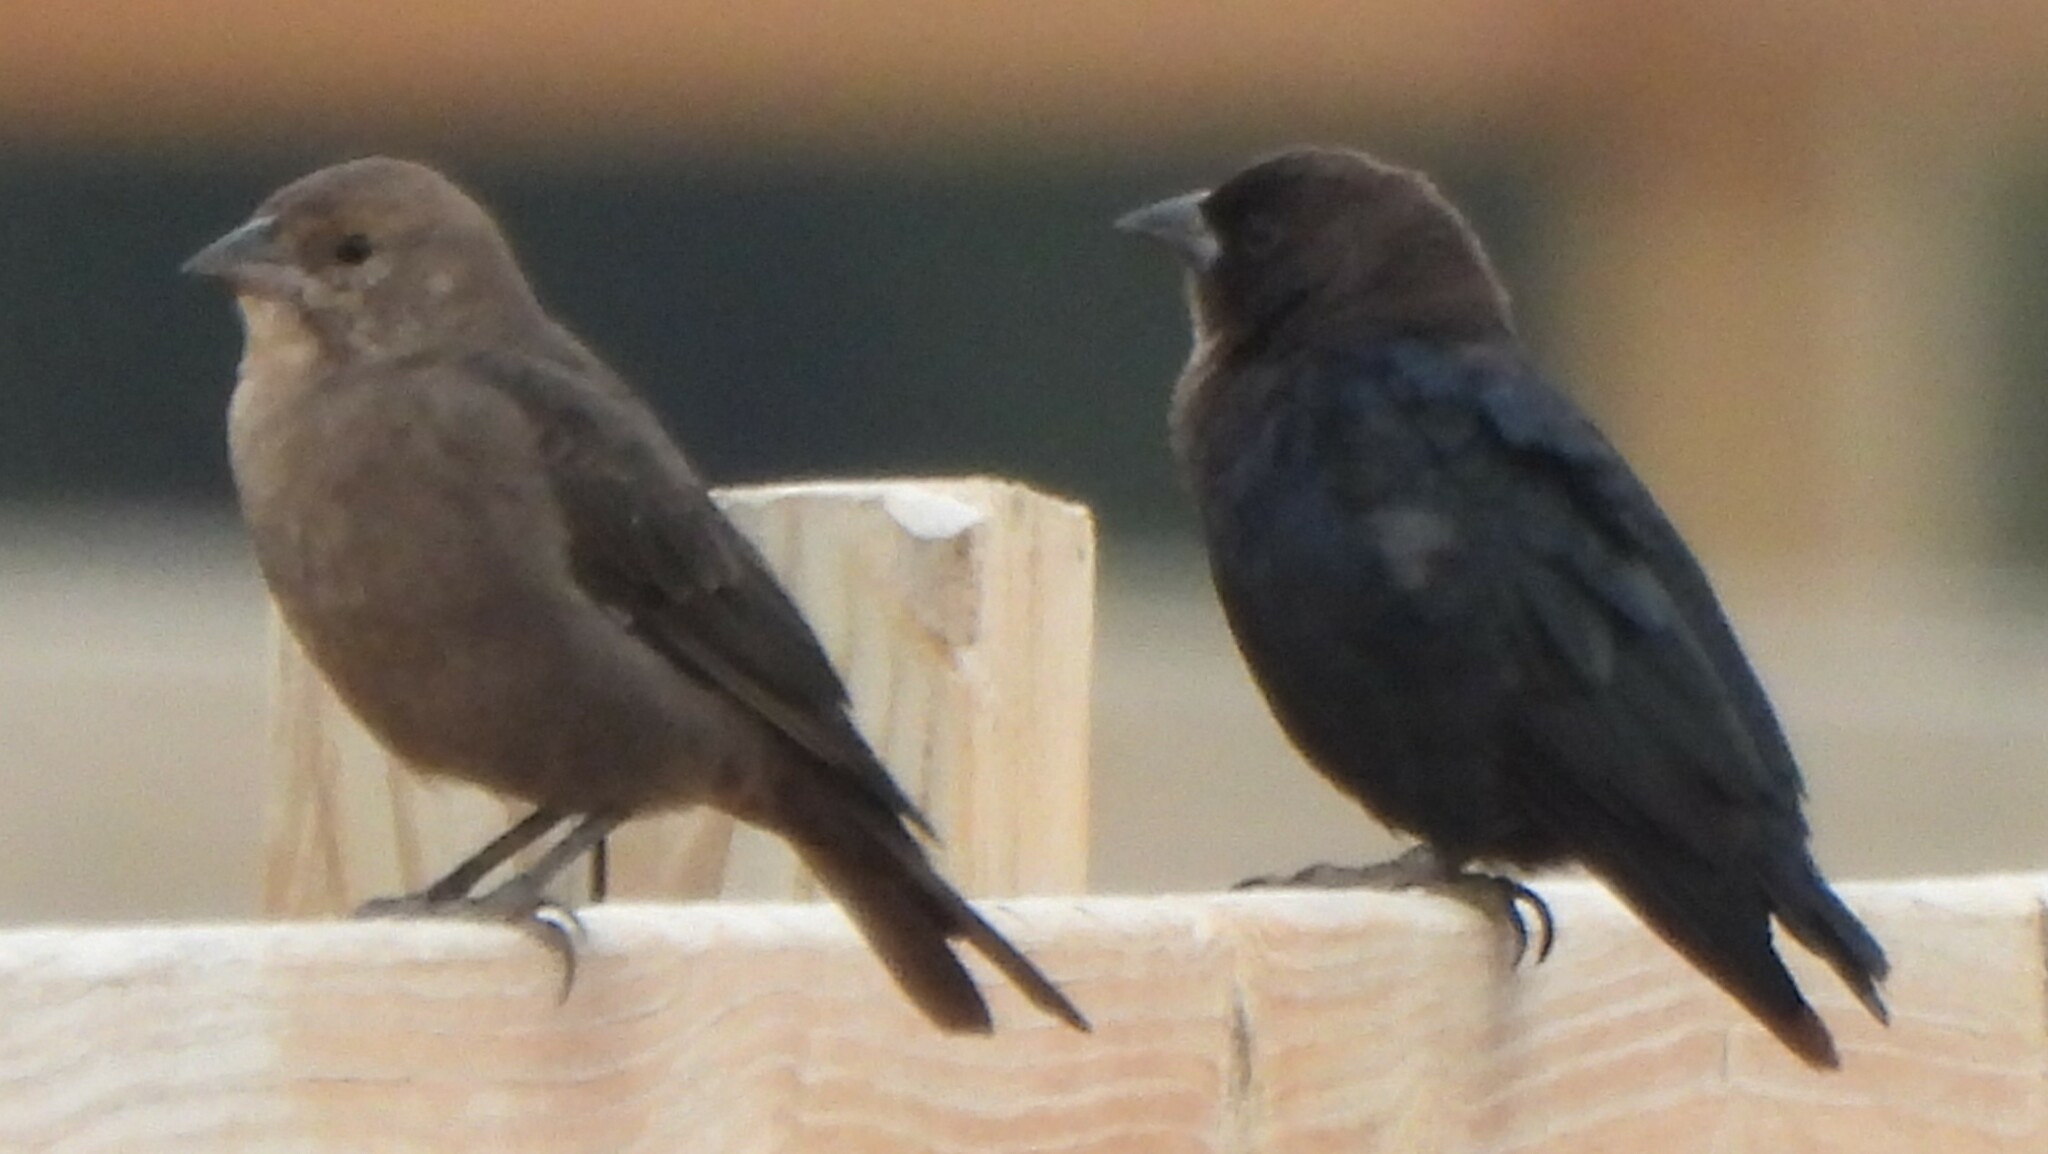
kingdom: Animalia
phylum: Chordata
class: Aves
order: Passeriformes
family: Icteridae
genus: Molothrus
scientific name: Molothrus ater
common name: Brown-headed cowbird
